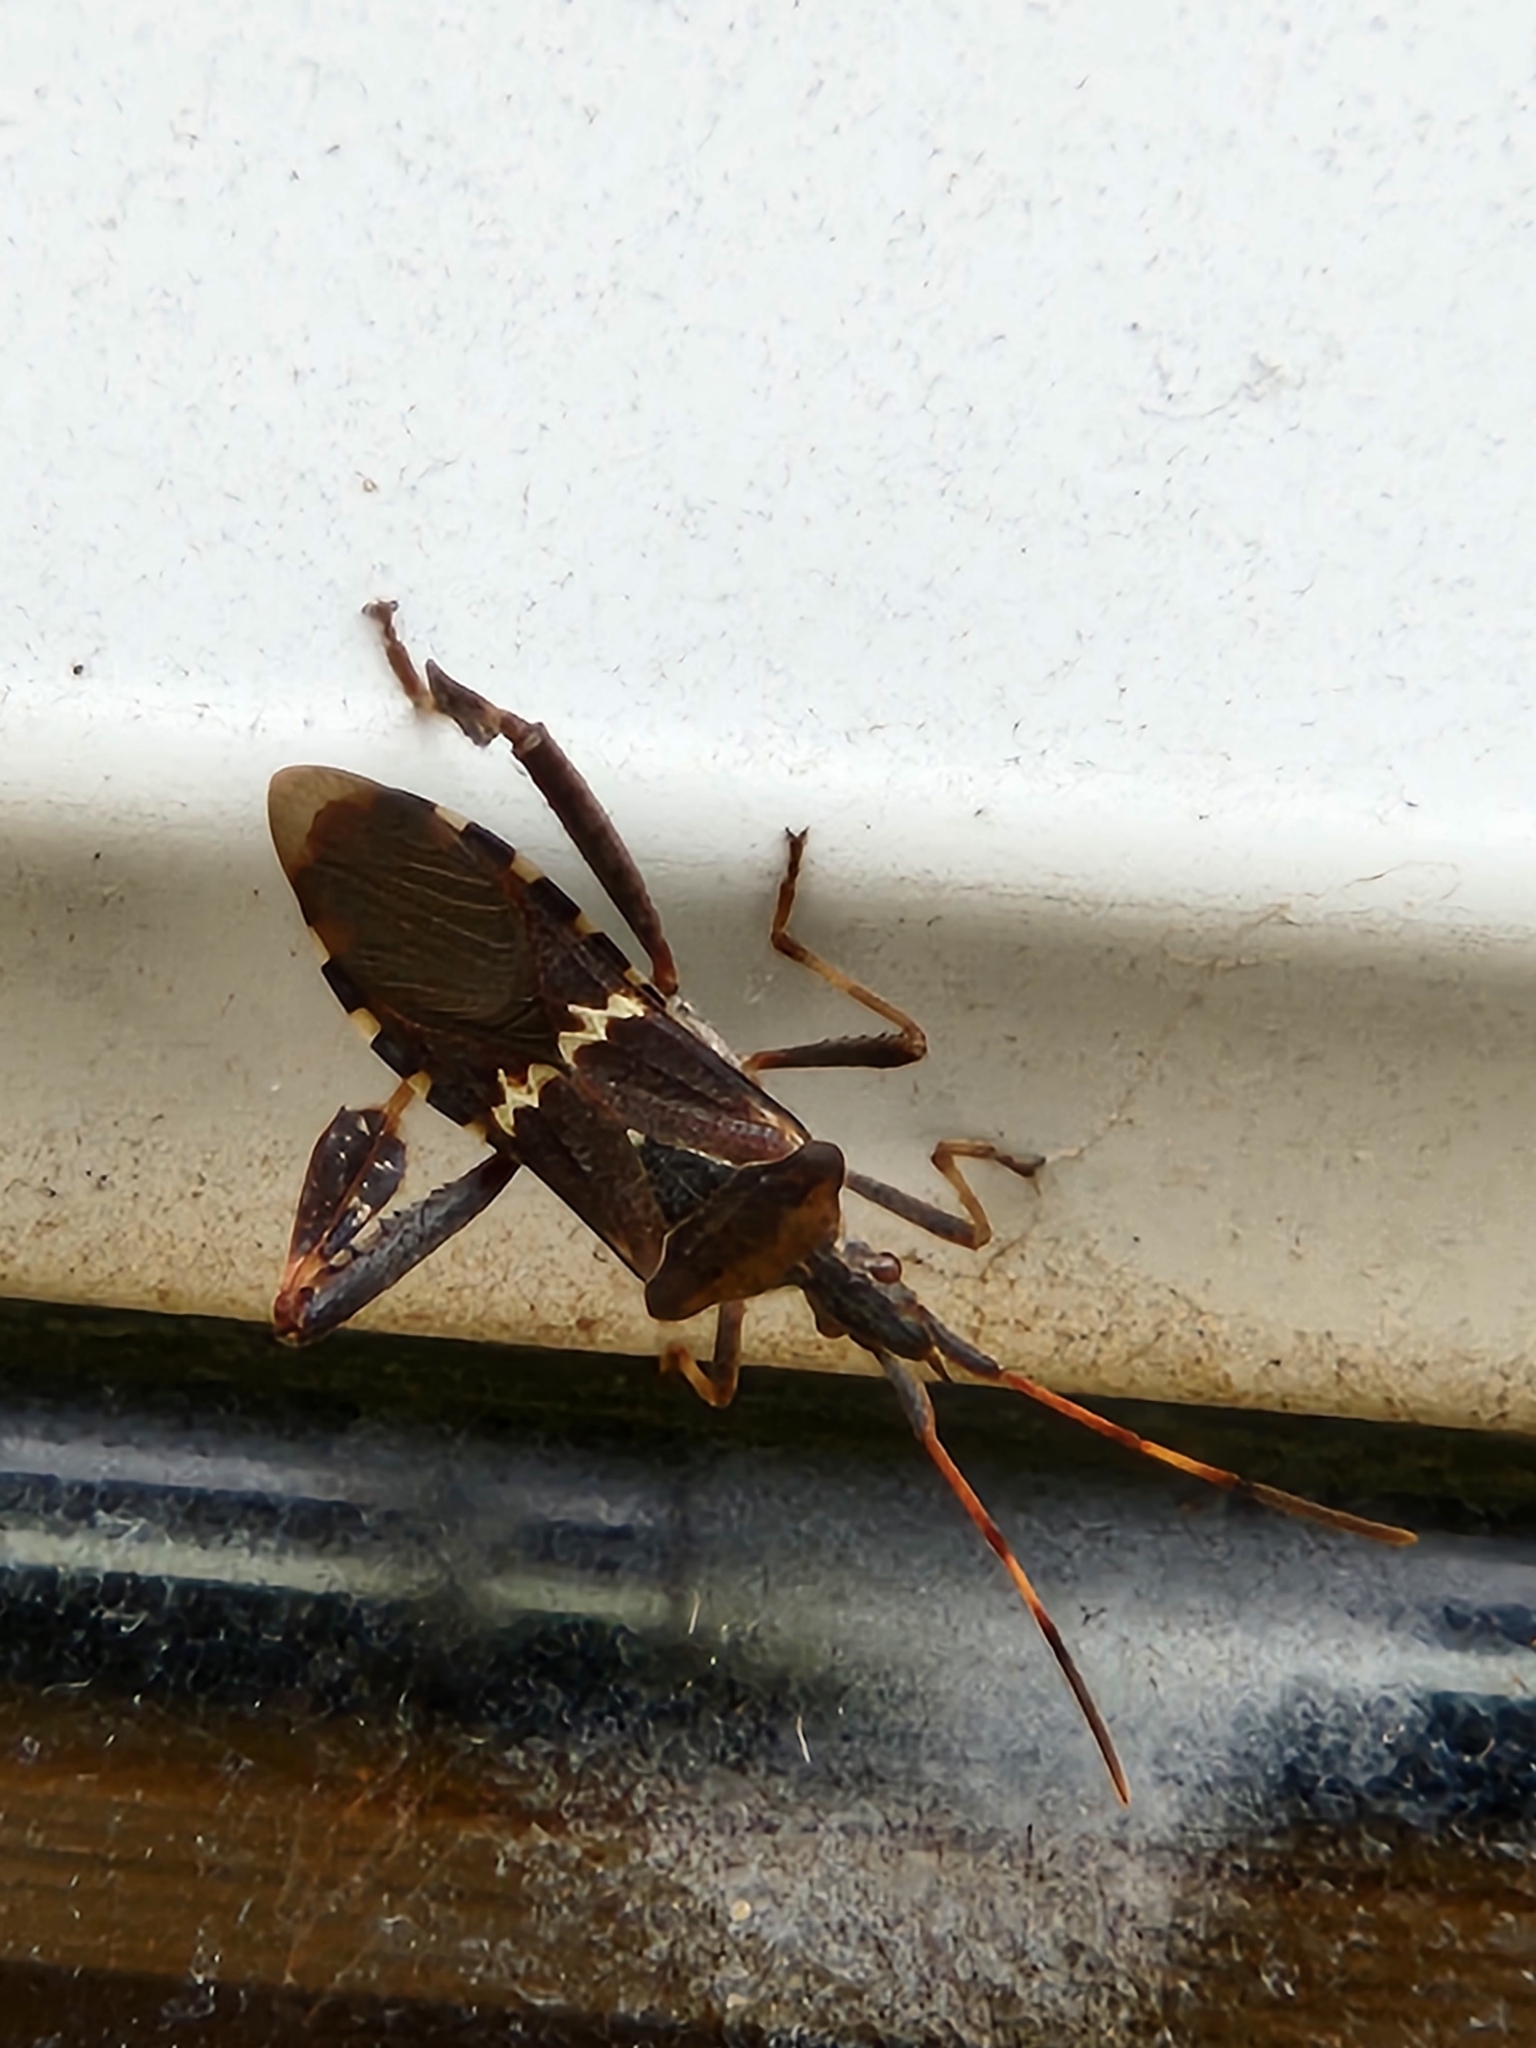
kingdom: Animalia
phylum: Arthropoda
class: Insecta
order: Hemiptera
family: Coreidae
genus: Leptoglossus
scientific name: Leptoglossus clypealis
